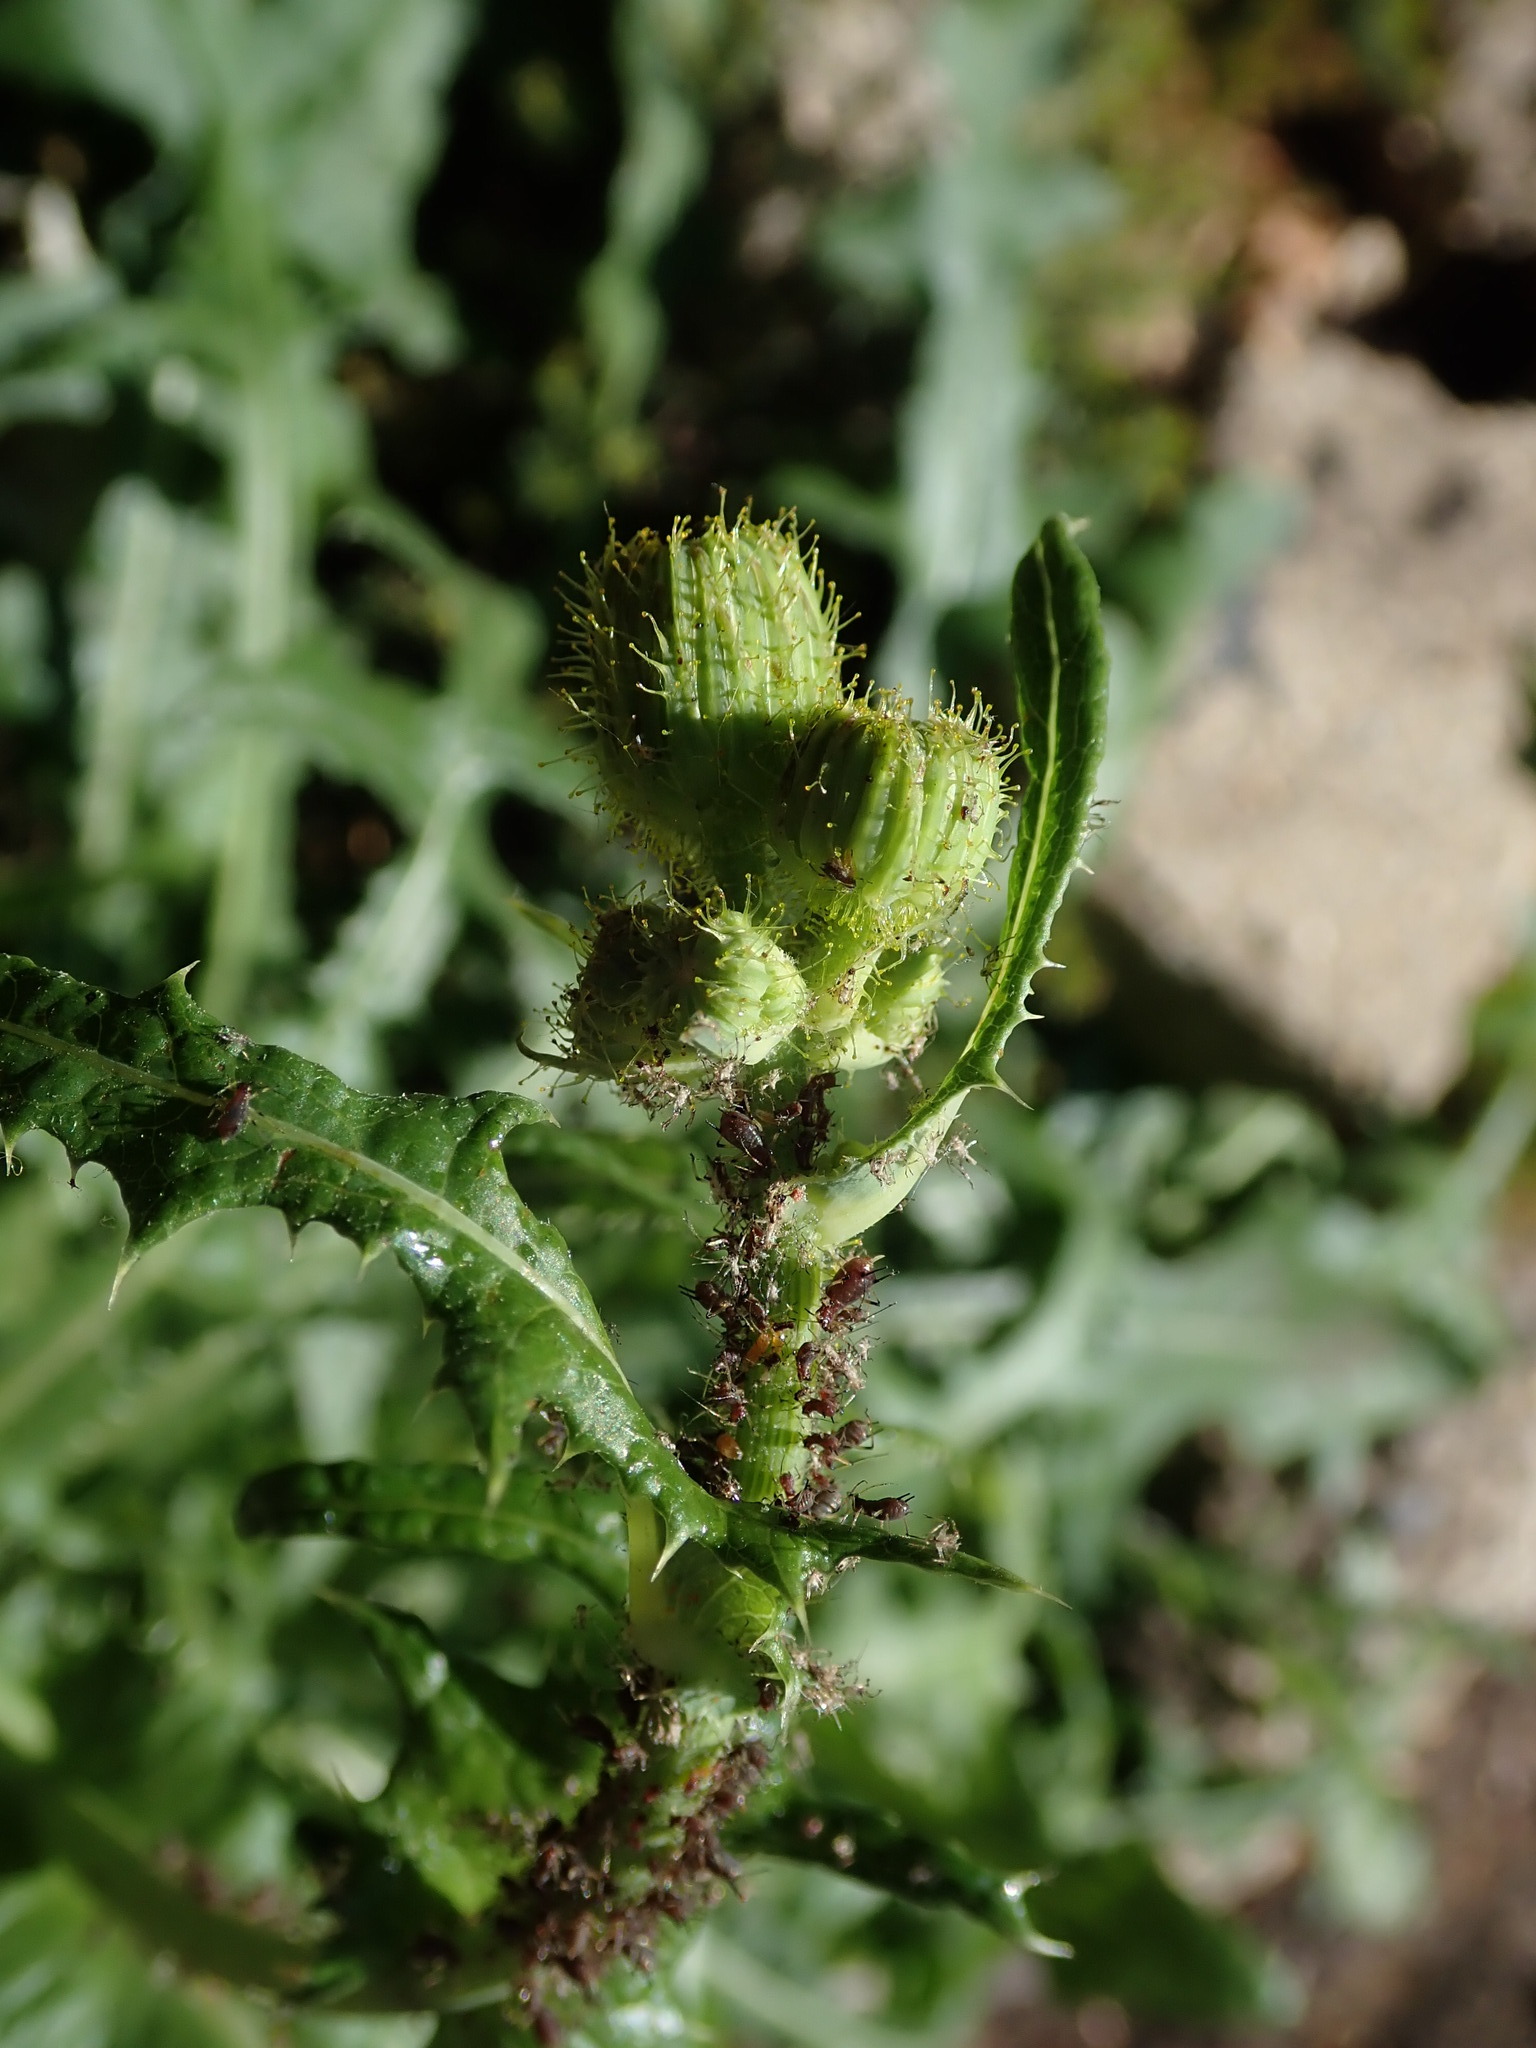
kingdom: Plantae
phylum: Tracheophyta
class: Magnoliopsida
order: Asterales
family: Asteraceae
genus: Sonchus
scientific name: Sonchus arvensis
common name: Perennial sow-thistle
